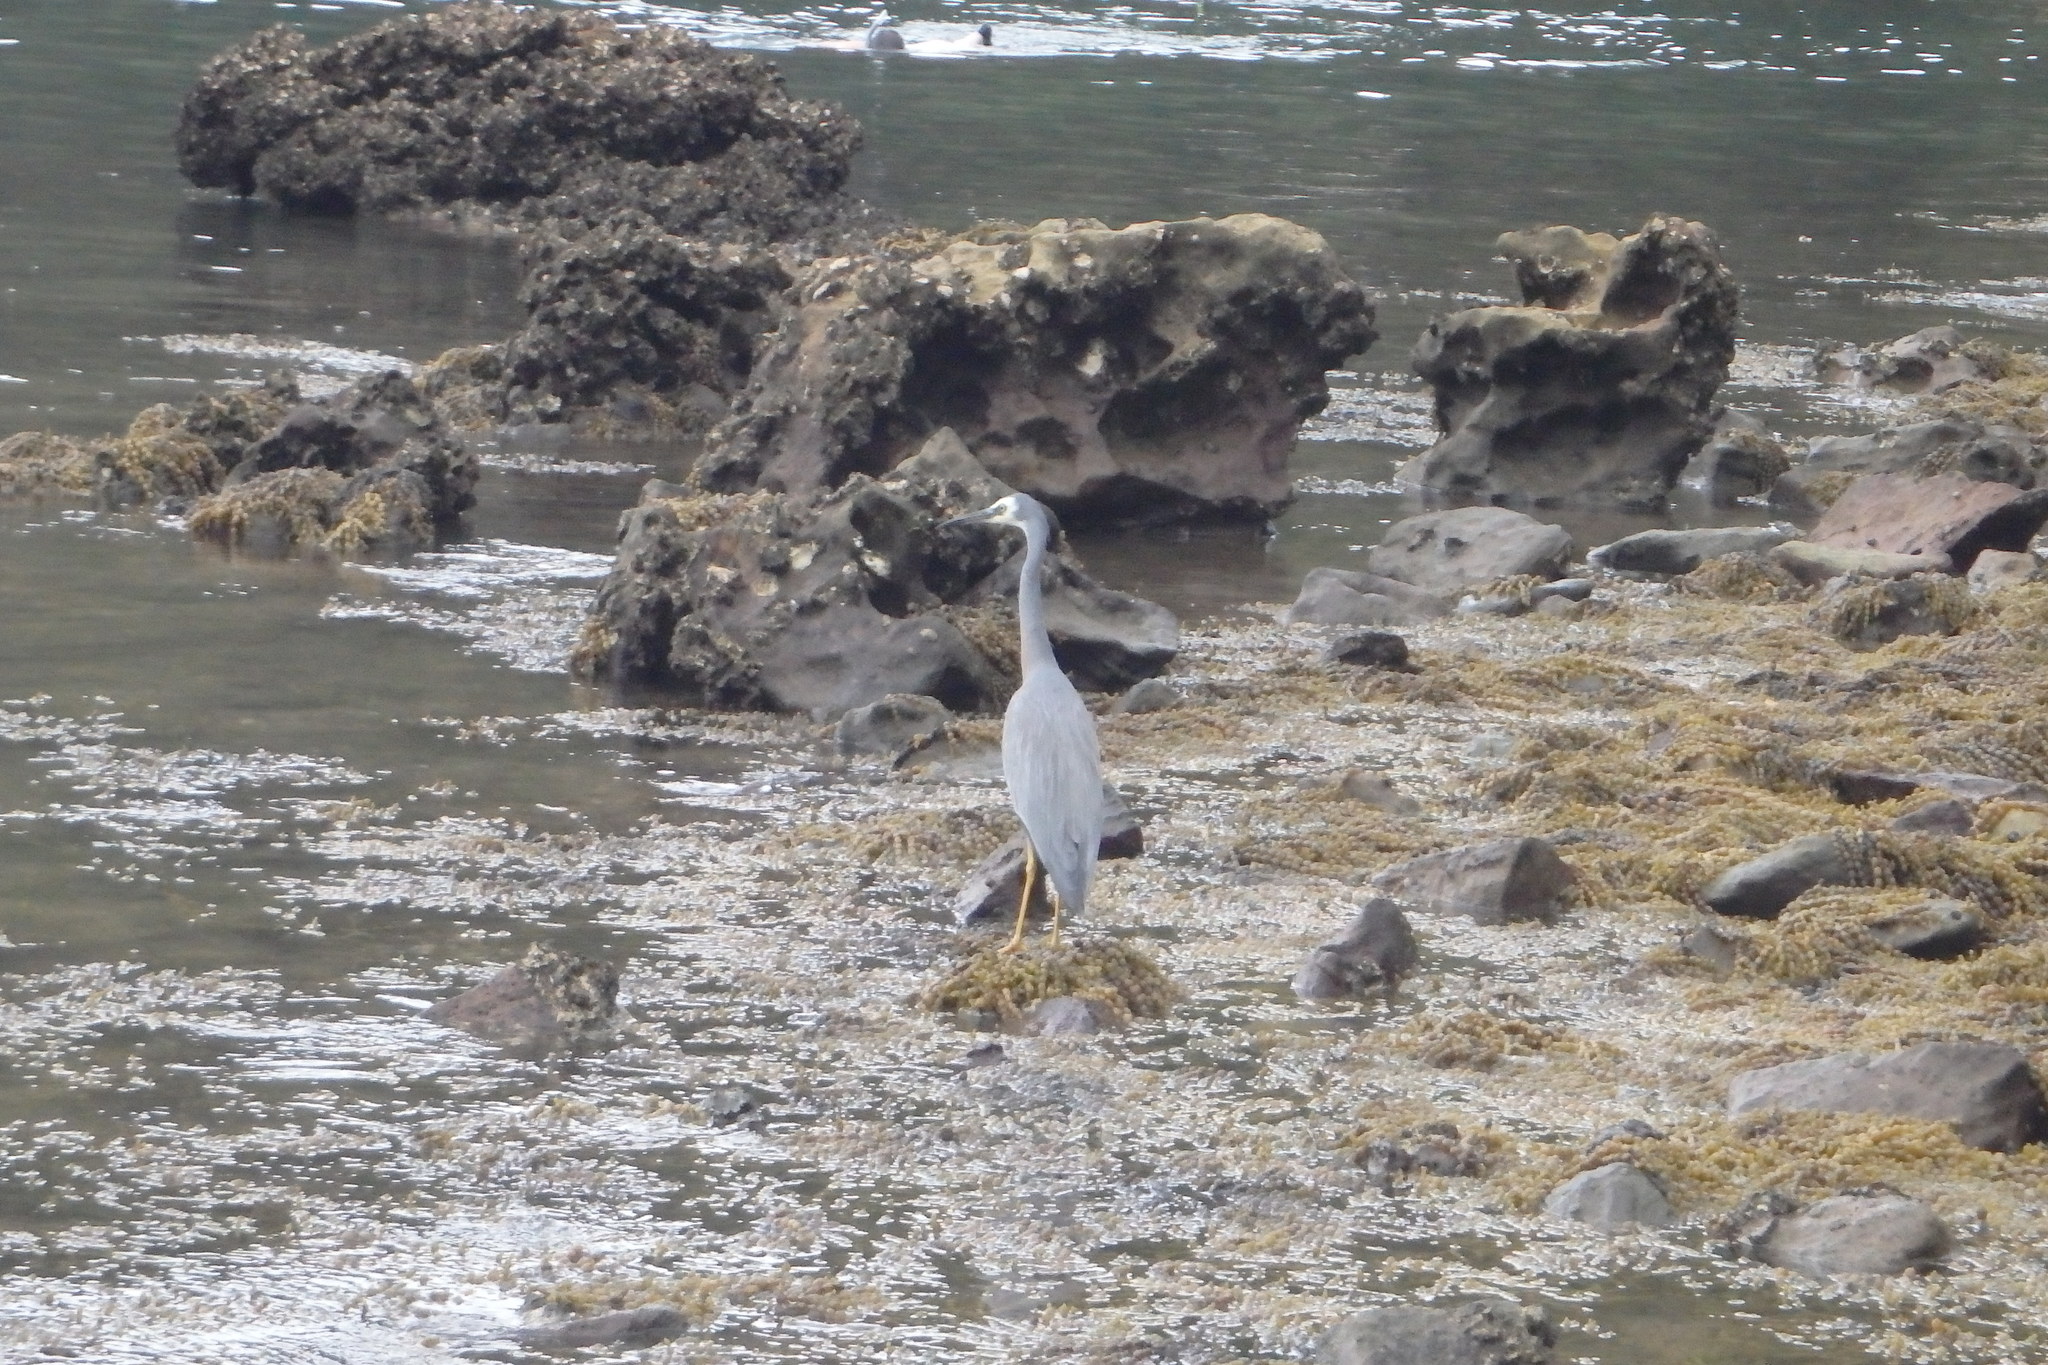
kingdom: Animalia
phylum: Chordata
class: Aves
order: Pelecaniformes
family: Ardeidae
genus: Egretta
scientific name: Egretta novaehollandiae
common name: White-faced heron
